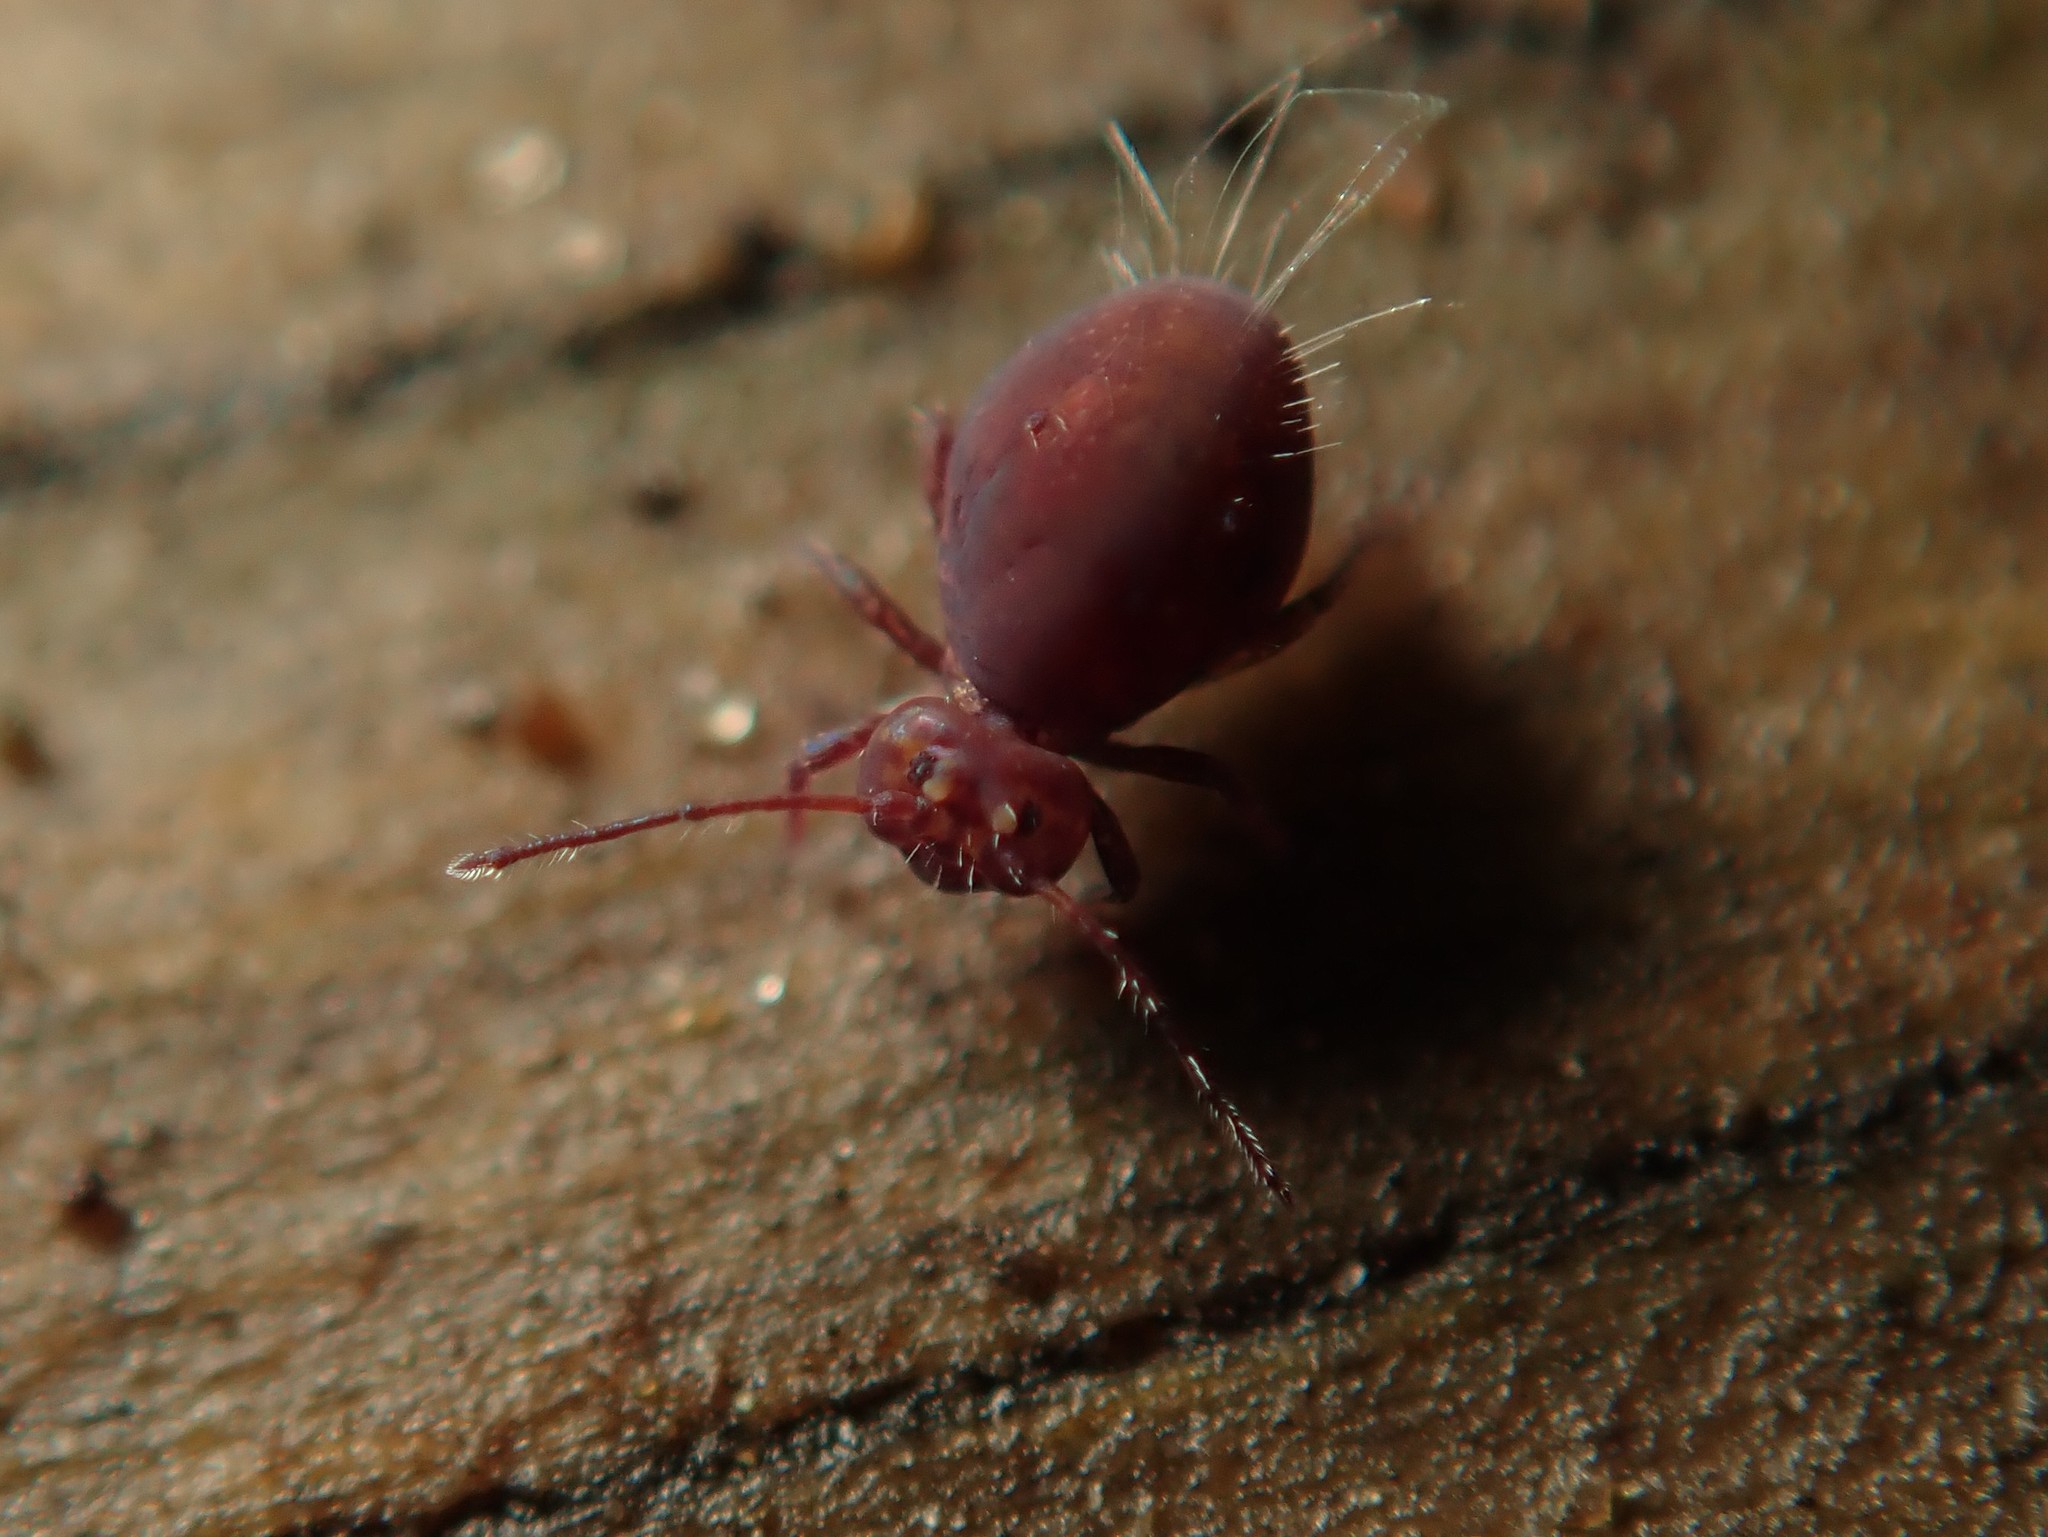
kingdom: Animalia
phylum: Arthropoda
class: Collembola
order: Symphypleona
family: Dicyrtomidae
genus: Dicyrtoma
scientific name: Dicyrtoma fusca
